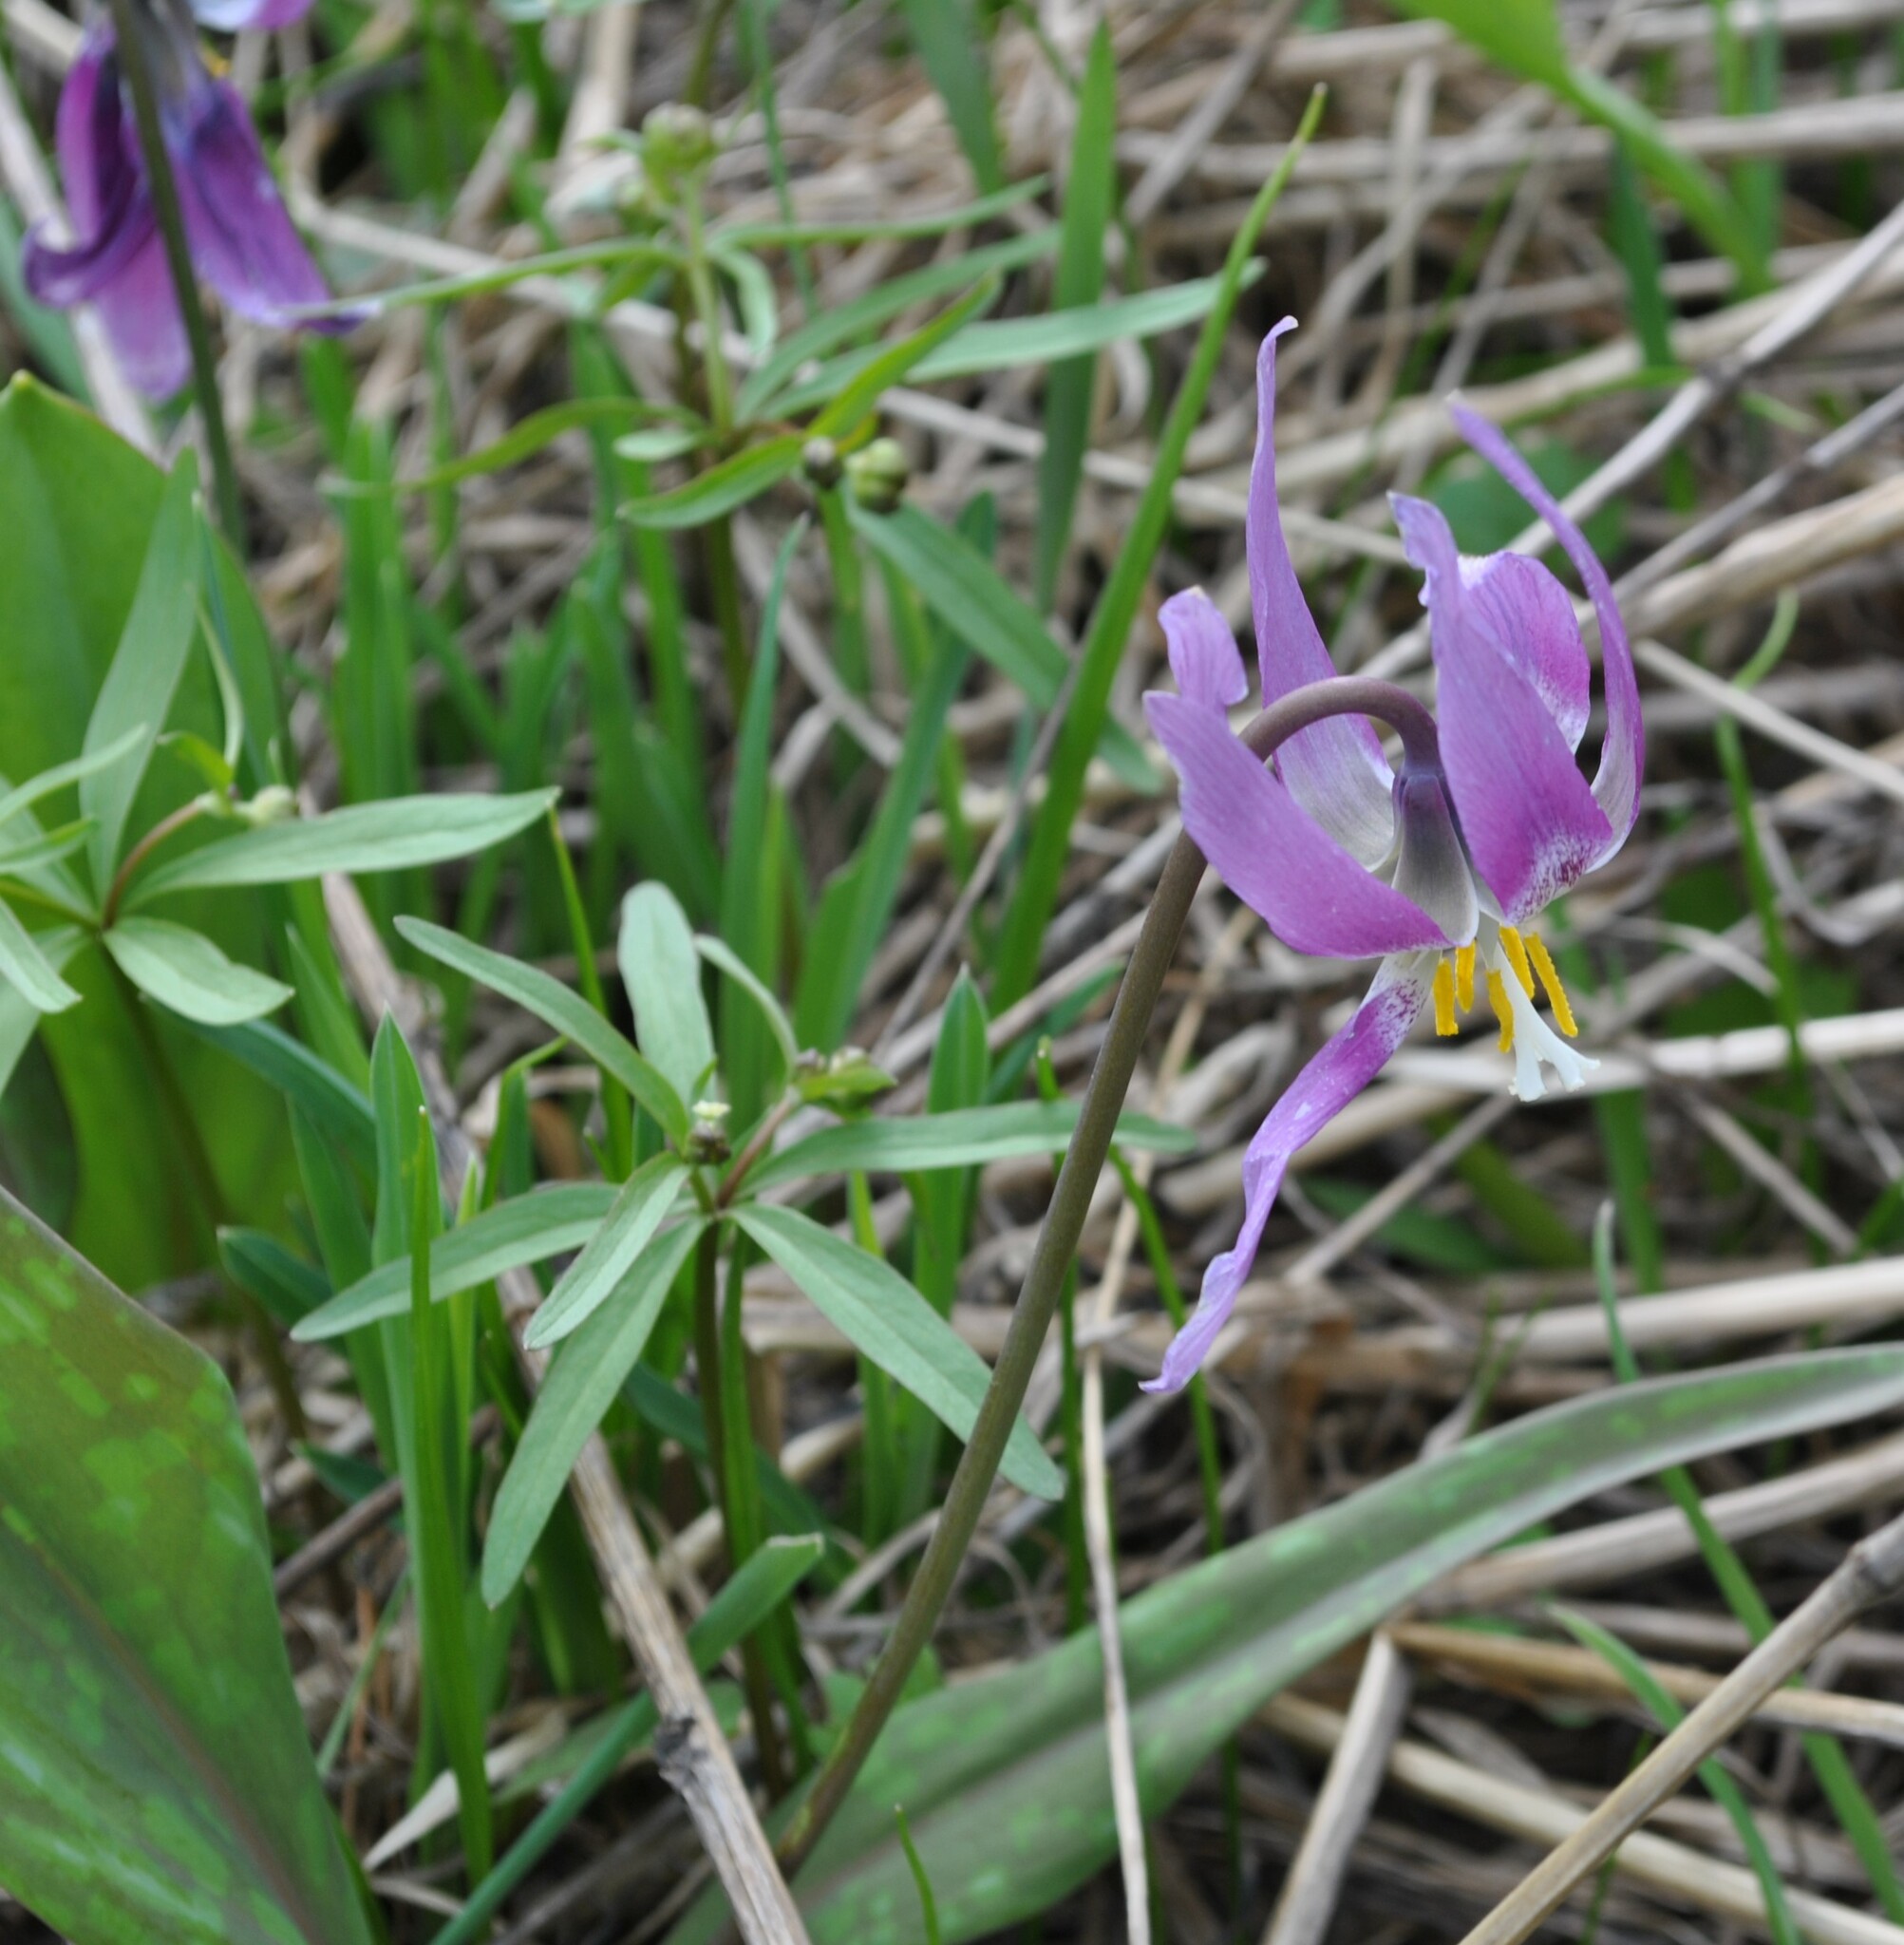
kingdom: Plantae
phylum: Tracheophyta
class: Liliopsida
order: Liliales
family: Liliaceae
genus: Erythronium
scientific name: Erythronium sibiricum
